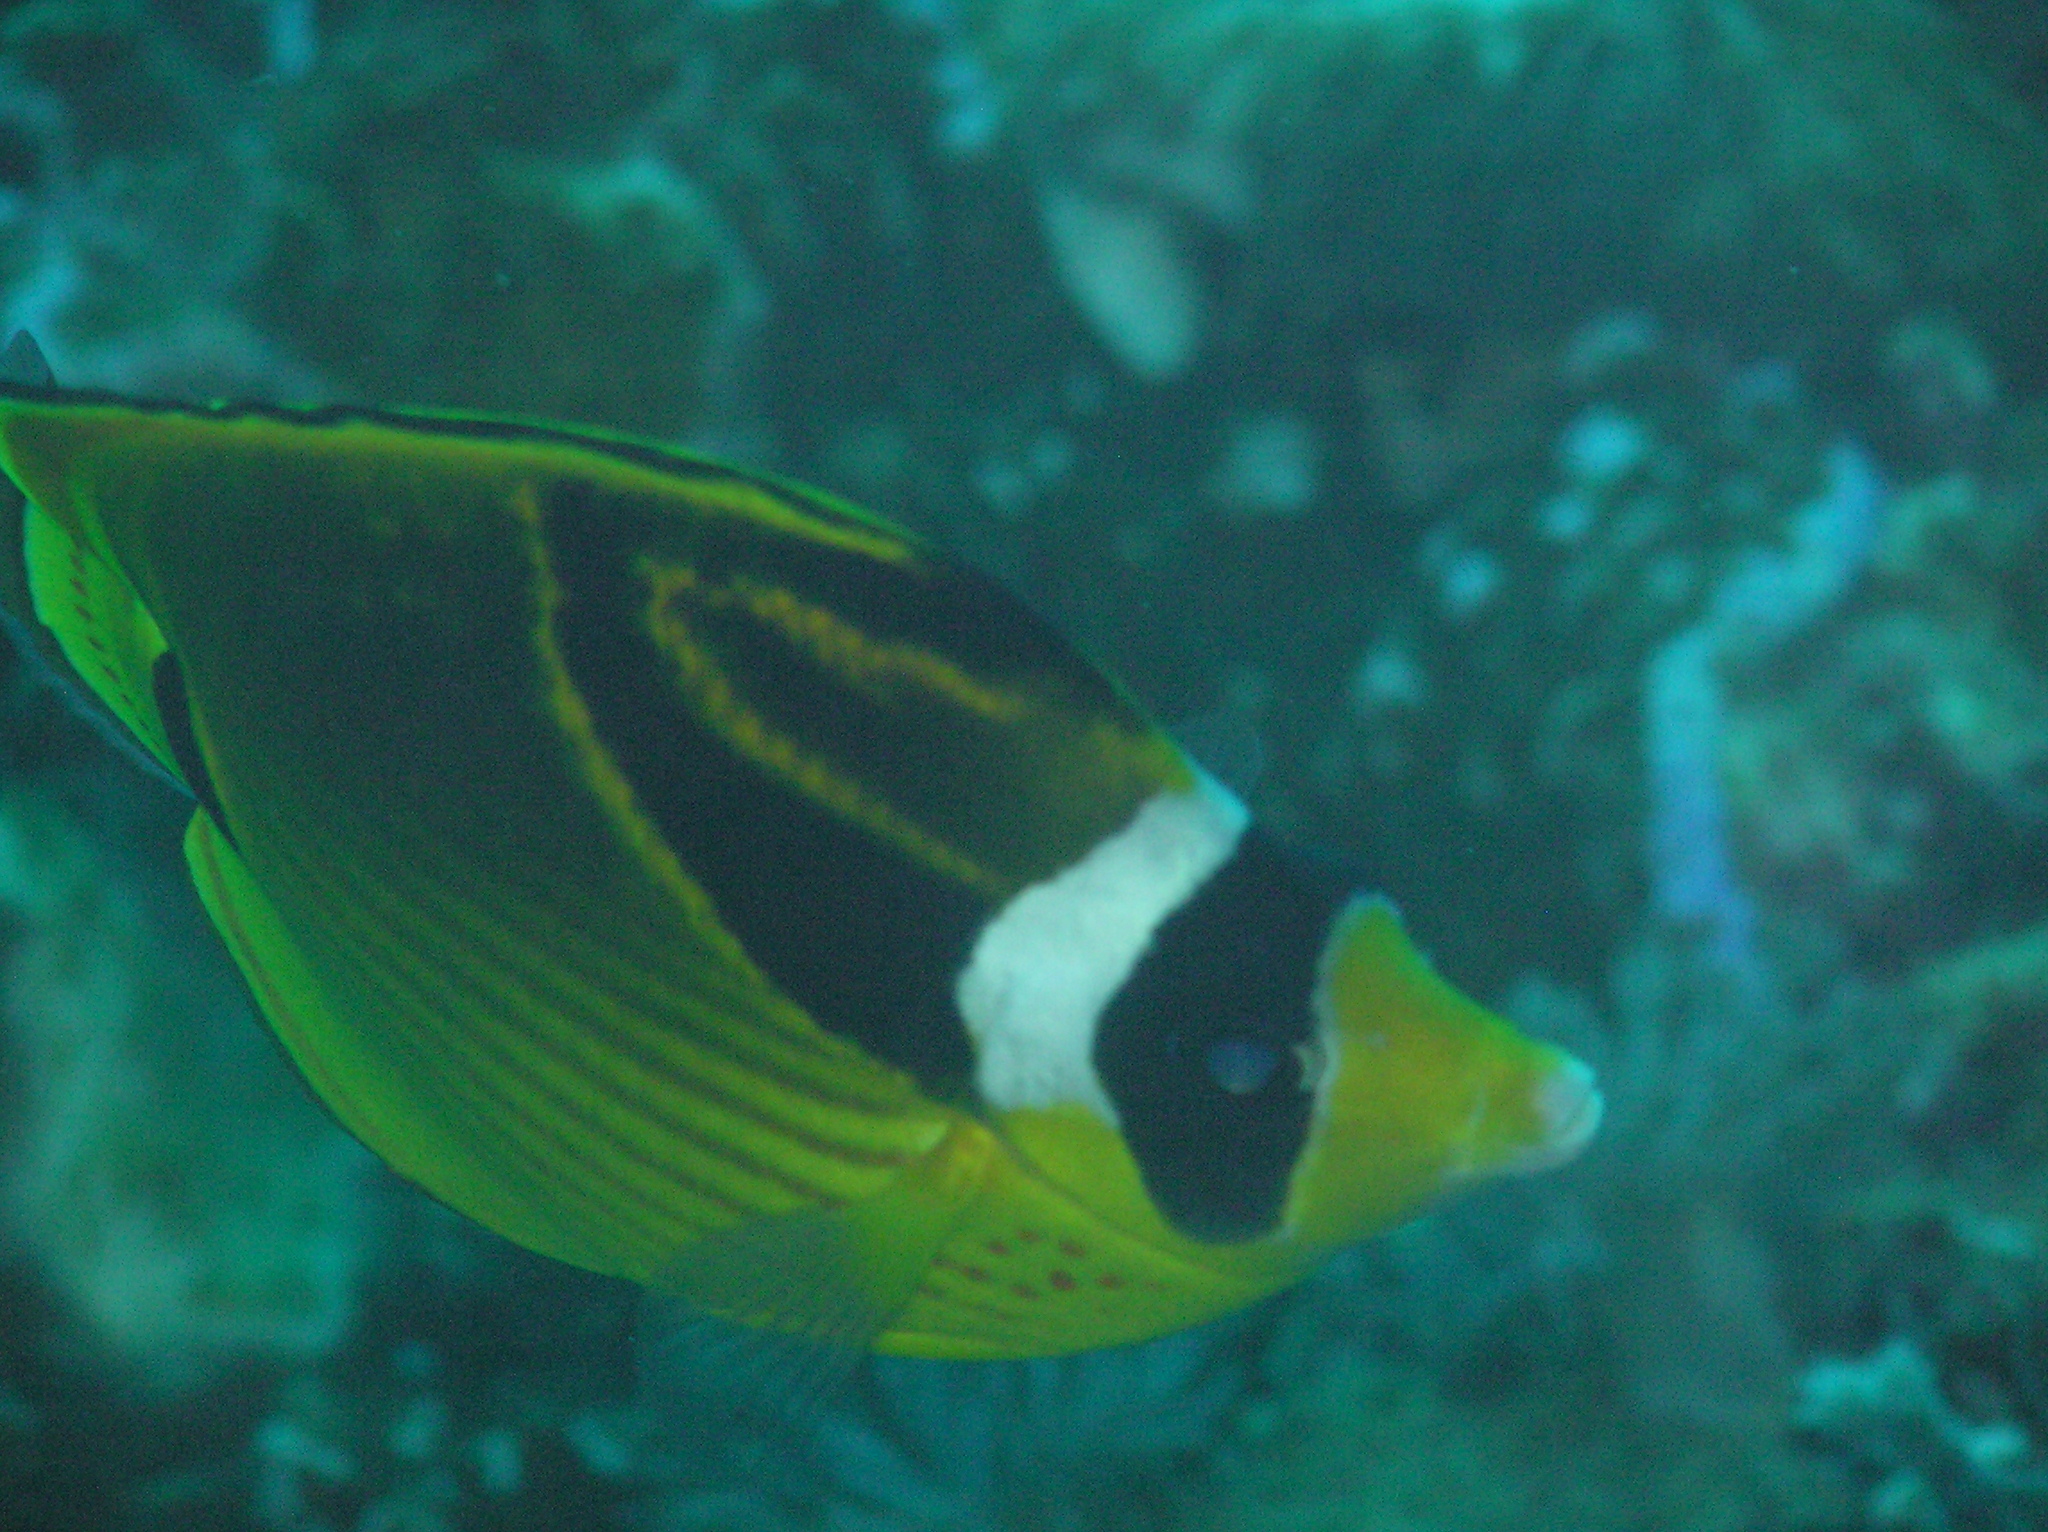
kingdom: Animalia
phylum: Chordata
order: Perciformes
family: Chaetodontidae
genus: Chaetodon
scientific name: Chaetodon lunula
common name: Raccoon butterflyfish
